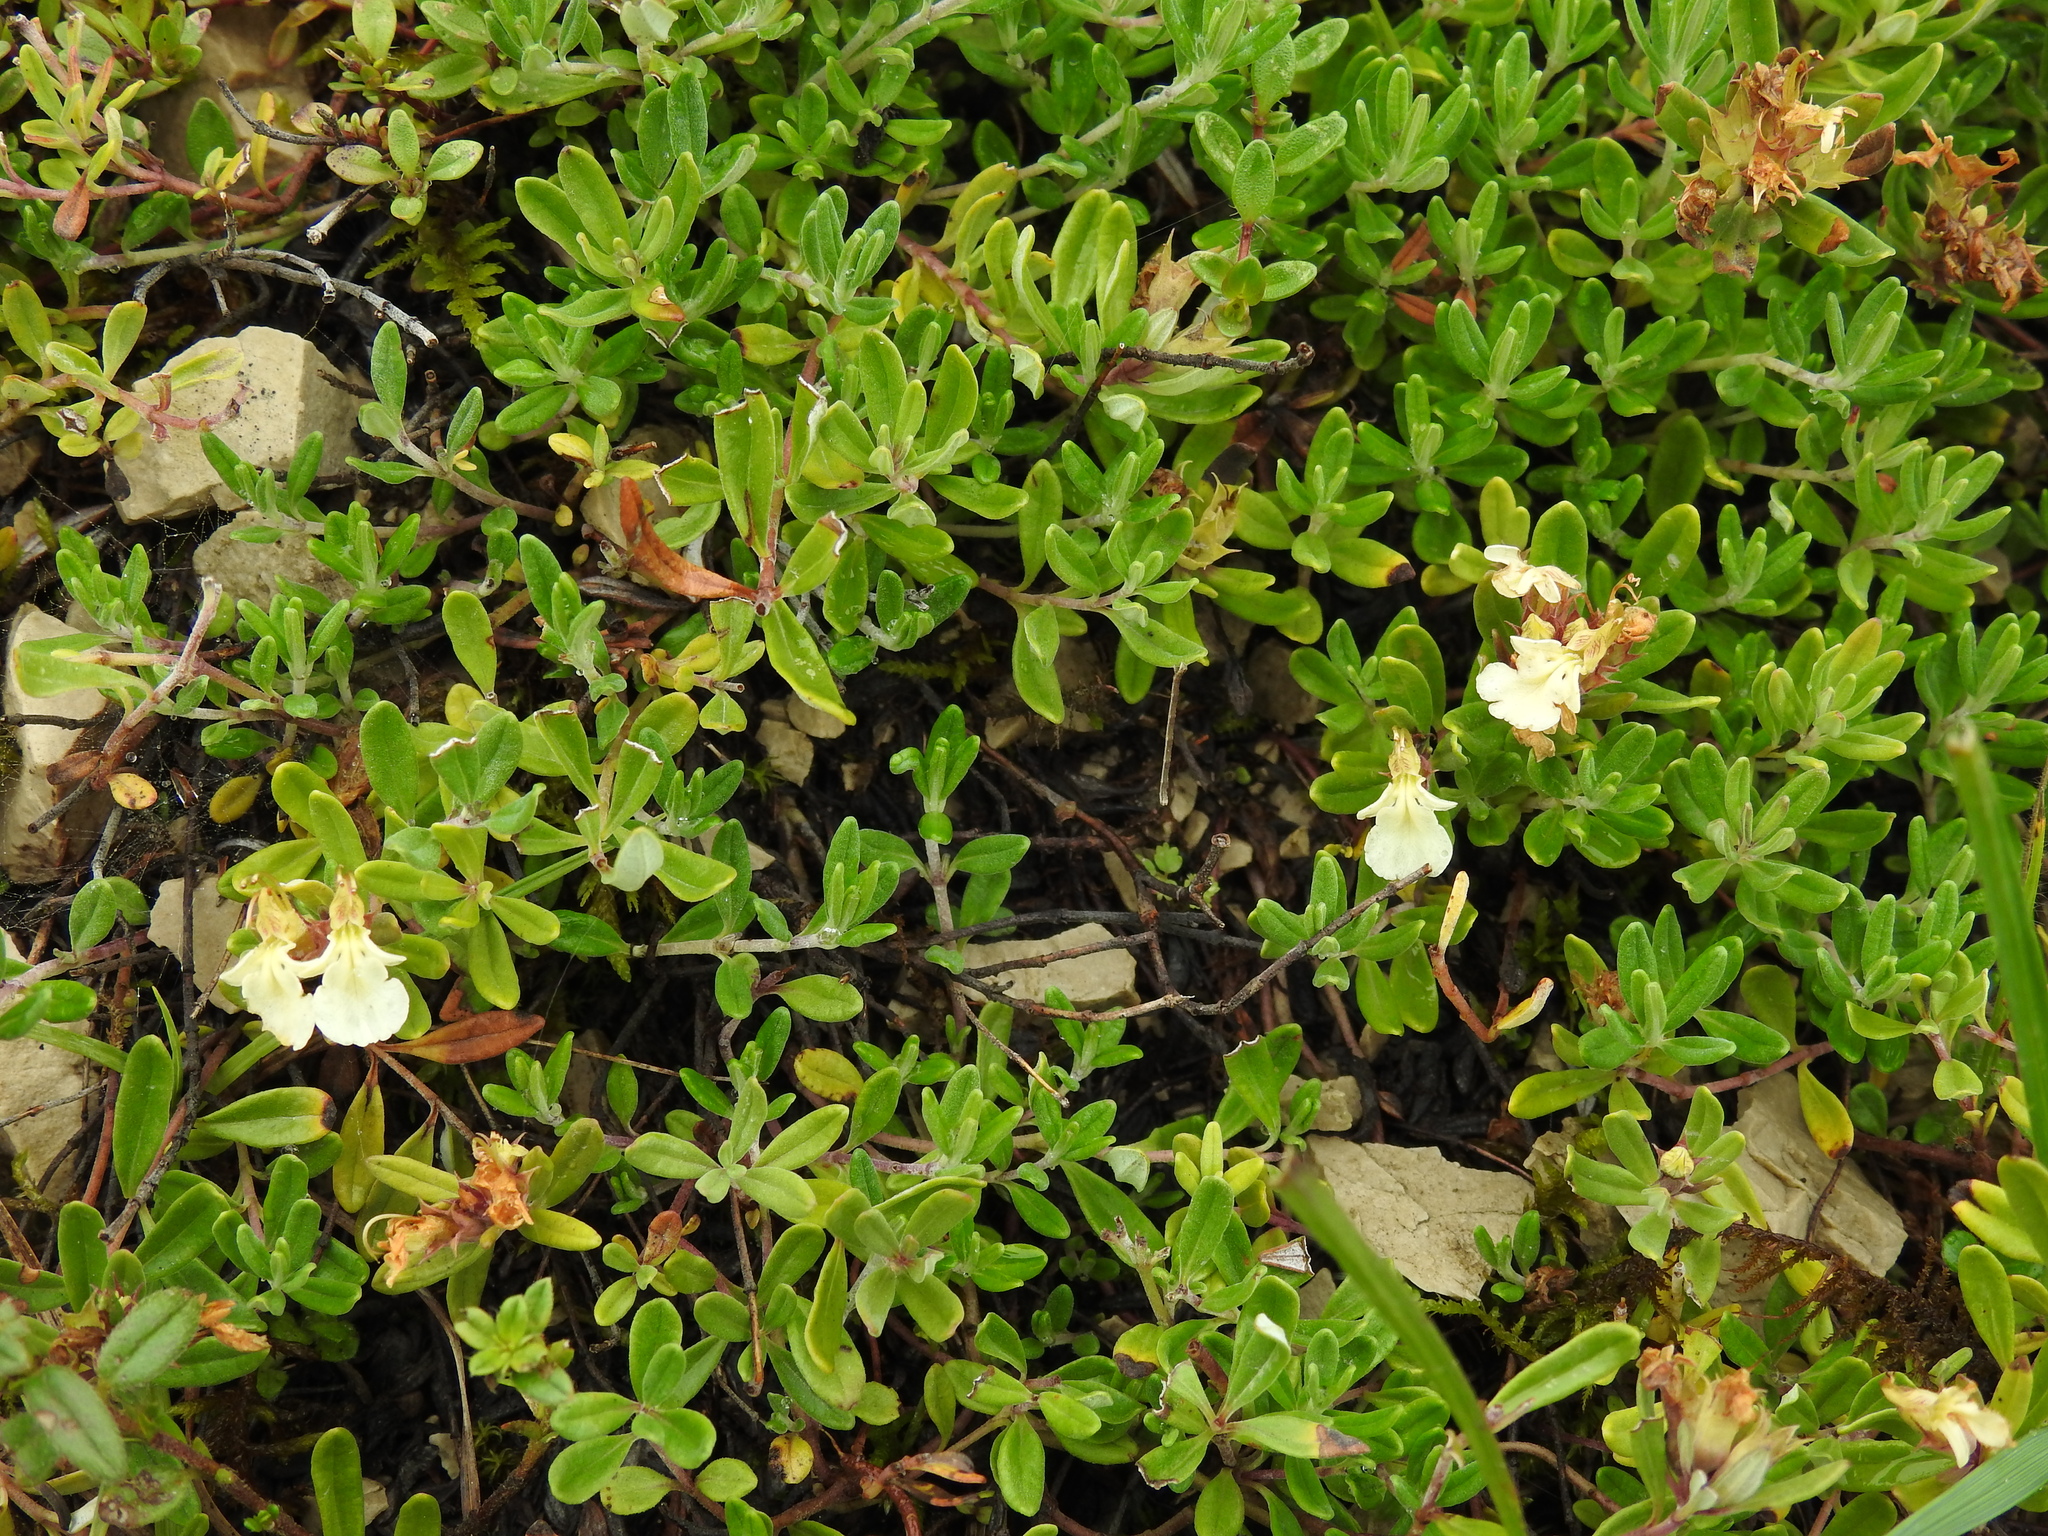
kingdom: Plantae
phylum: Tracheophyta
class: Magnoliopsida
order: Lamiales
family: Lamiaceae
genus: Teucrium
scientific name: Teucrium montanum
